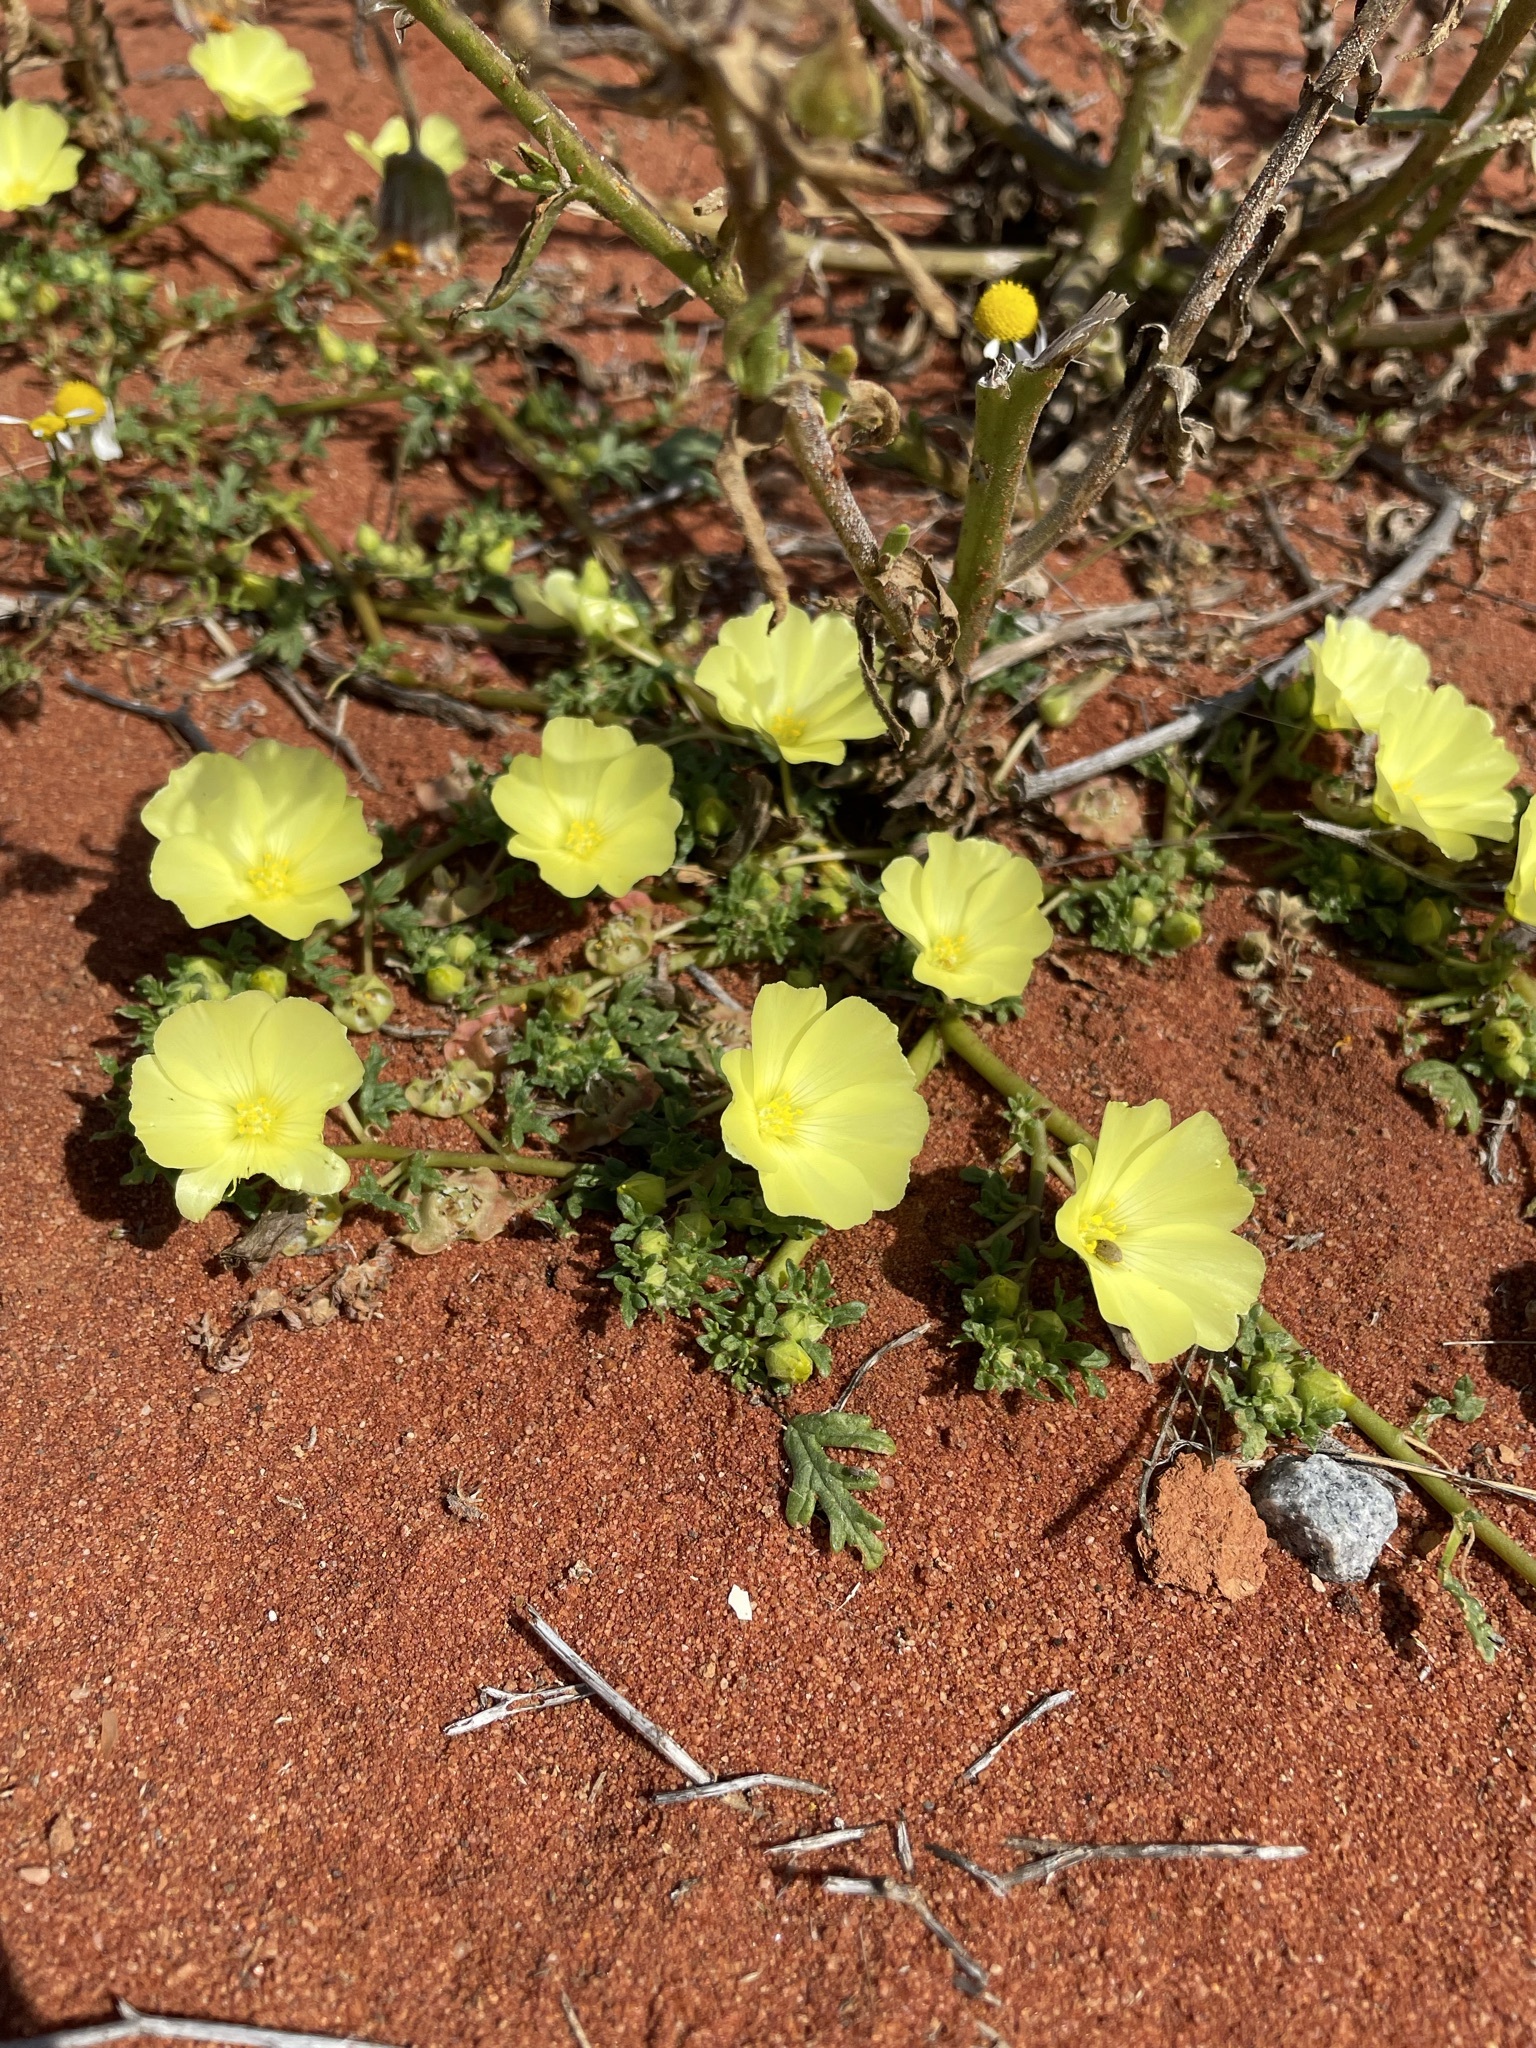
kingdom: Plantae
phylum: Tracheophyta
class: Magnoliopsida
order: Malvales
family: Neuradaceae
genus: Grielum
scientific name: Grielum humifusum
